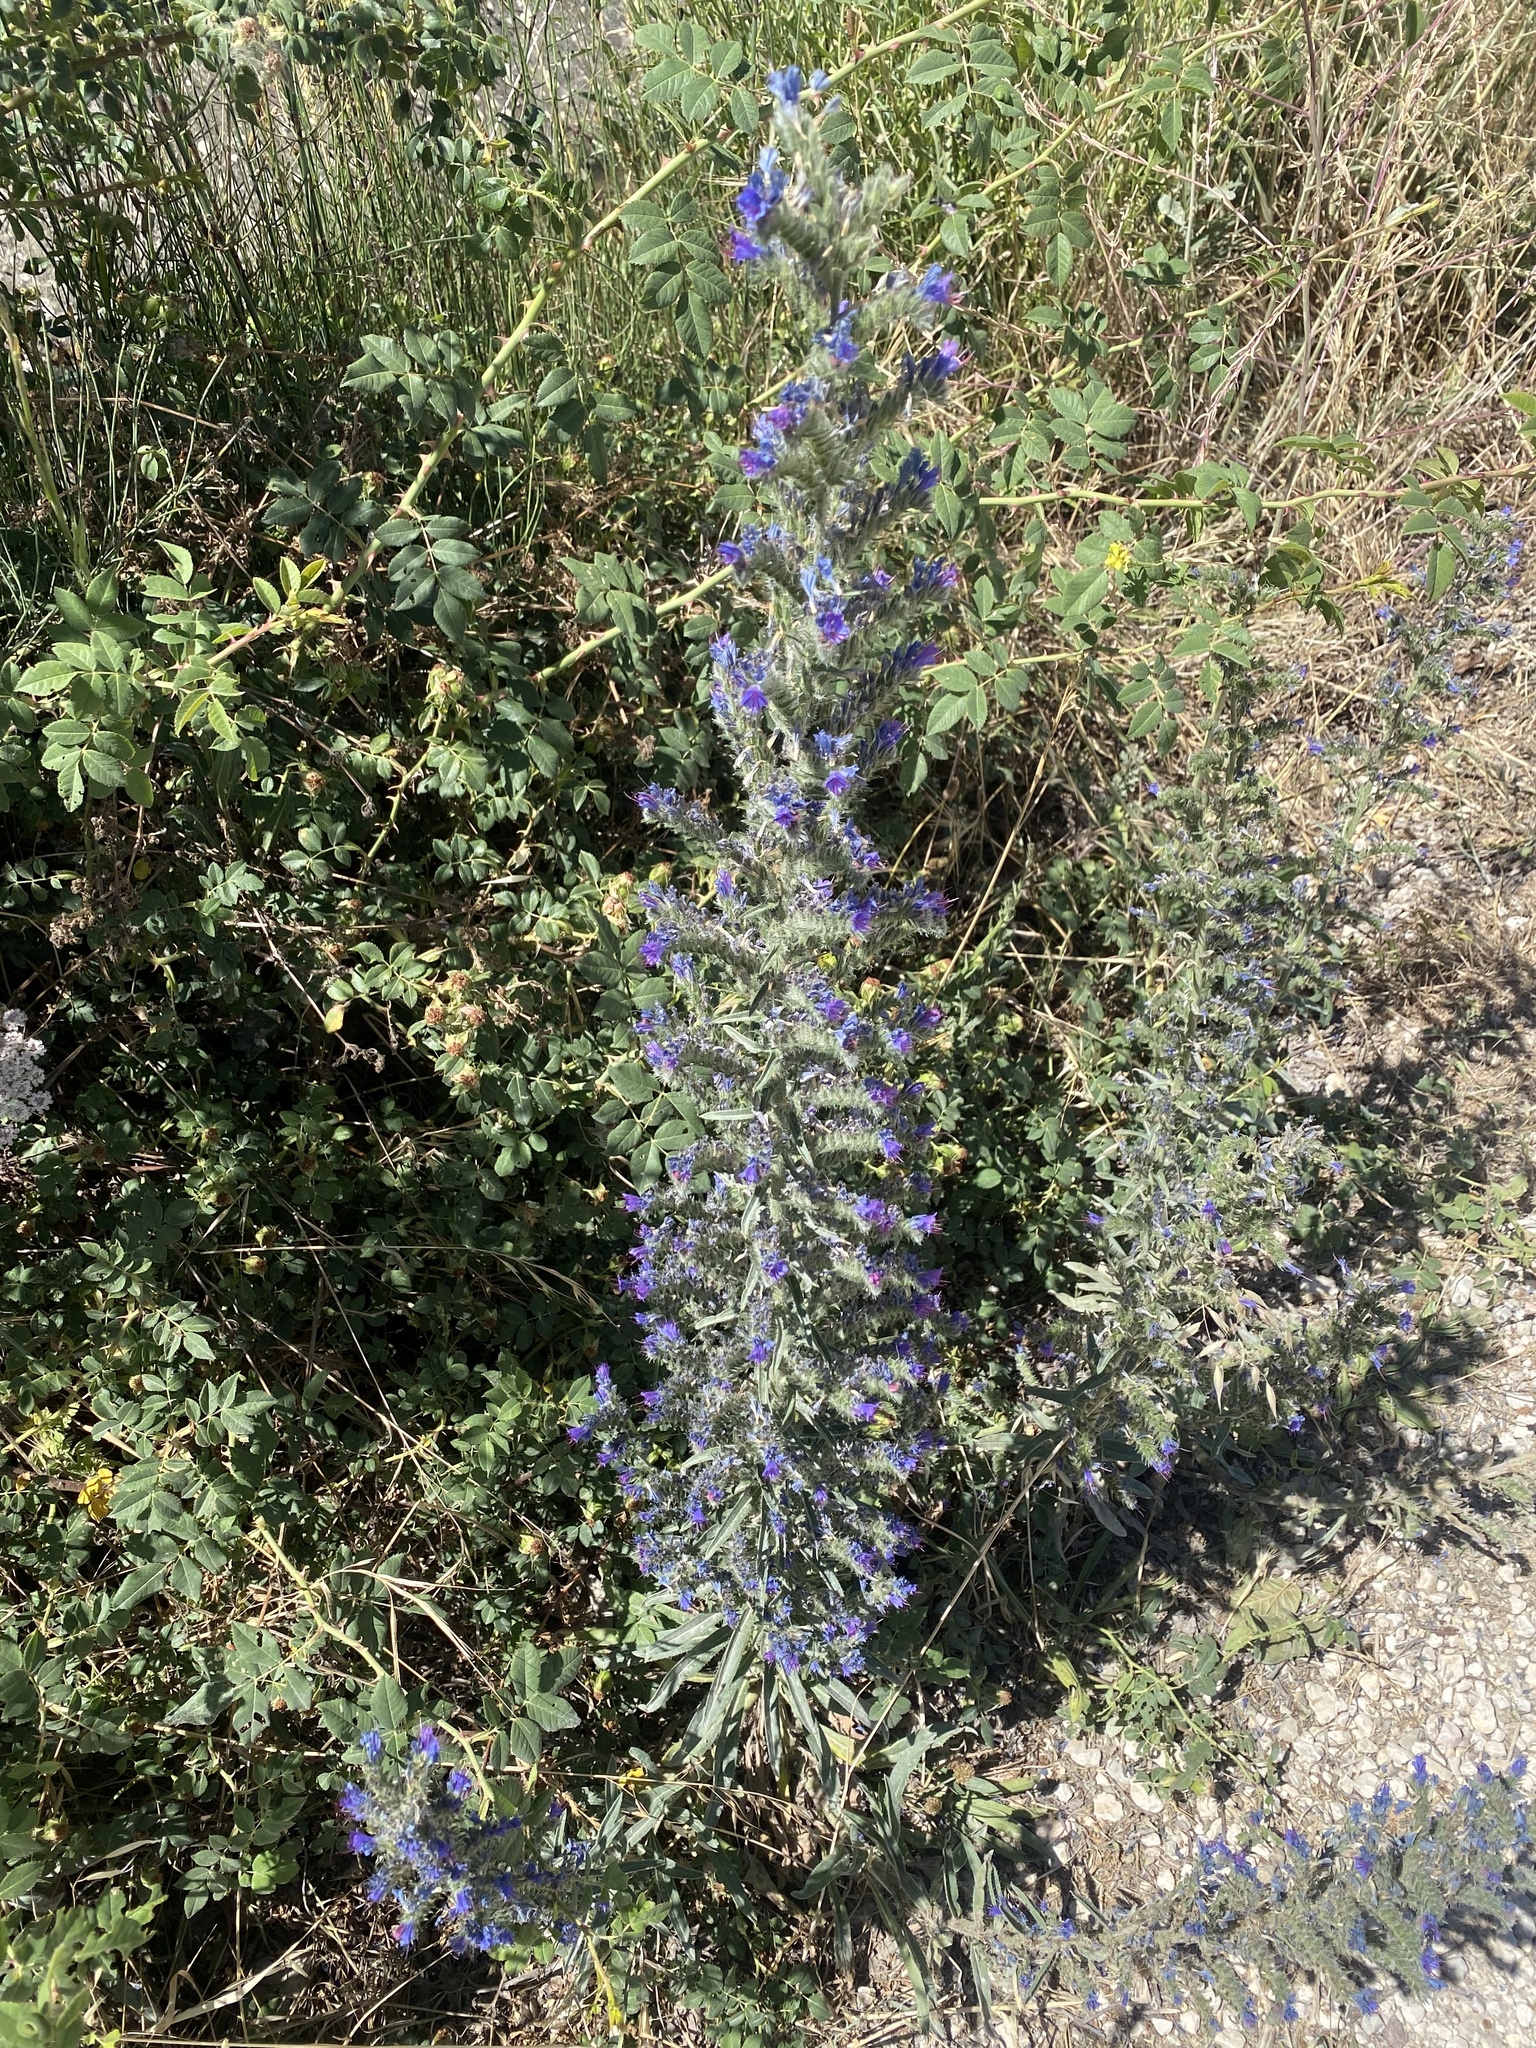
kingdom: Plantae
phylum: Tracheophyta
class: Magnoliopsida
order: Boraginales
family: Boraginaceae
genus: Echium
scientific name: Echium vulgare
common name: Common viper's bugloss
